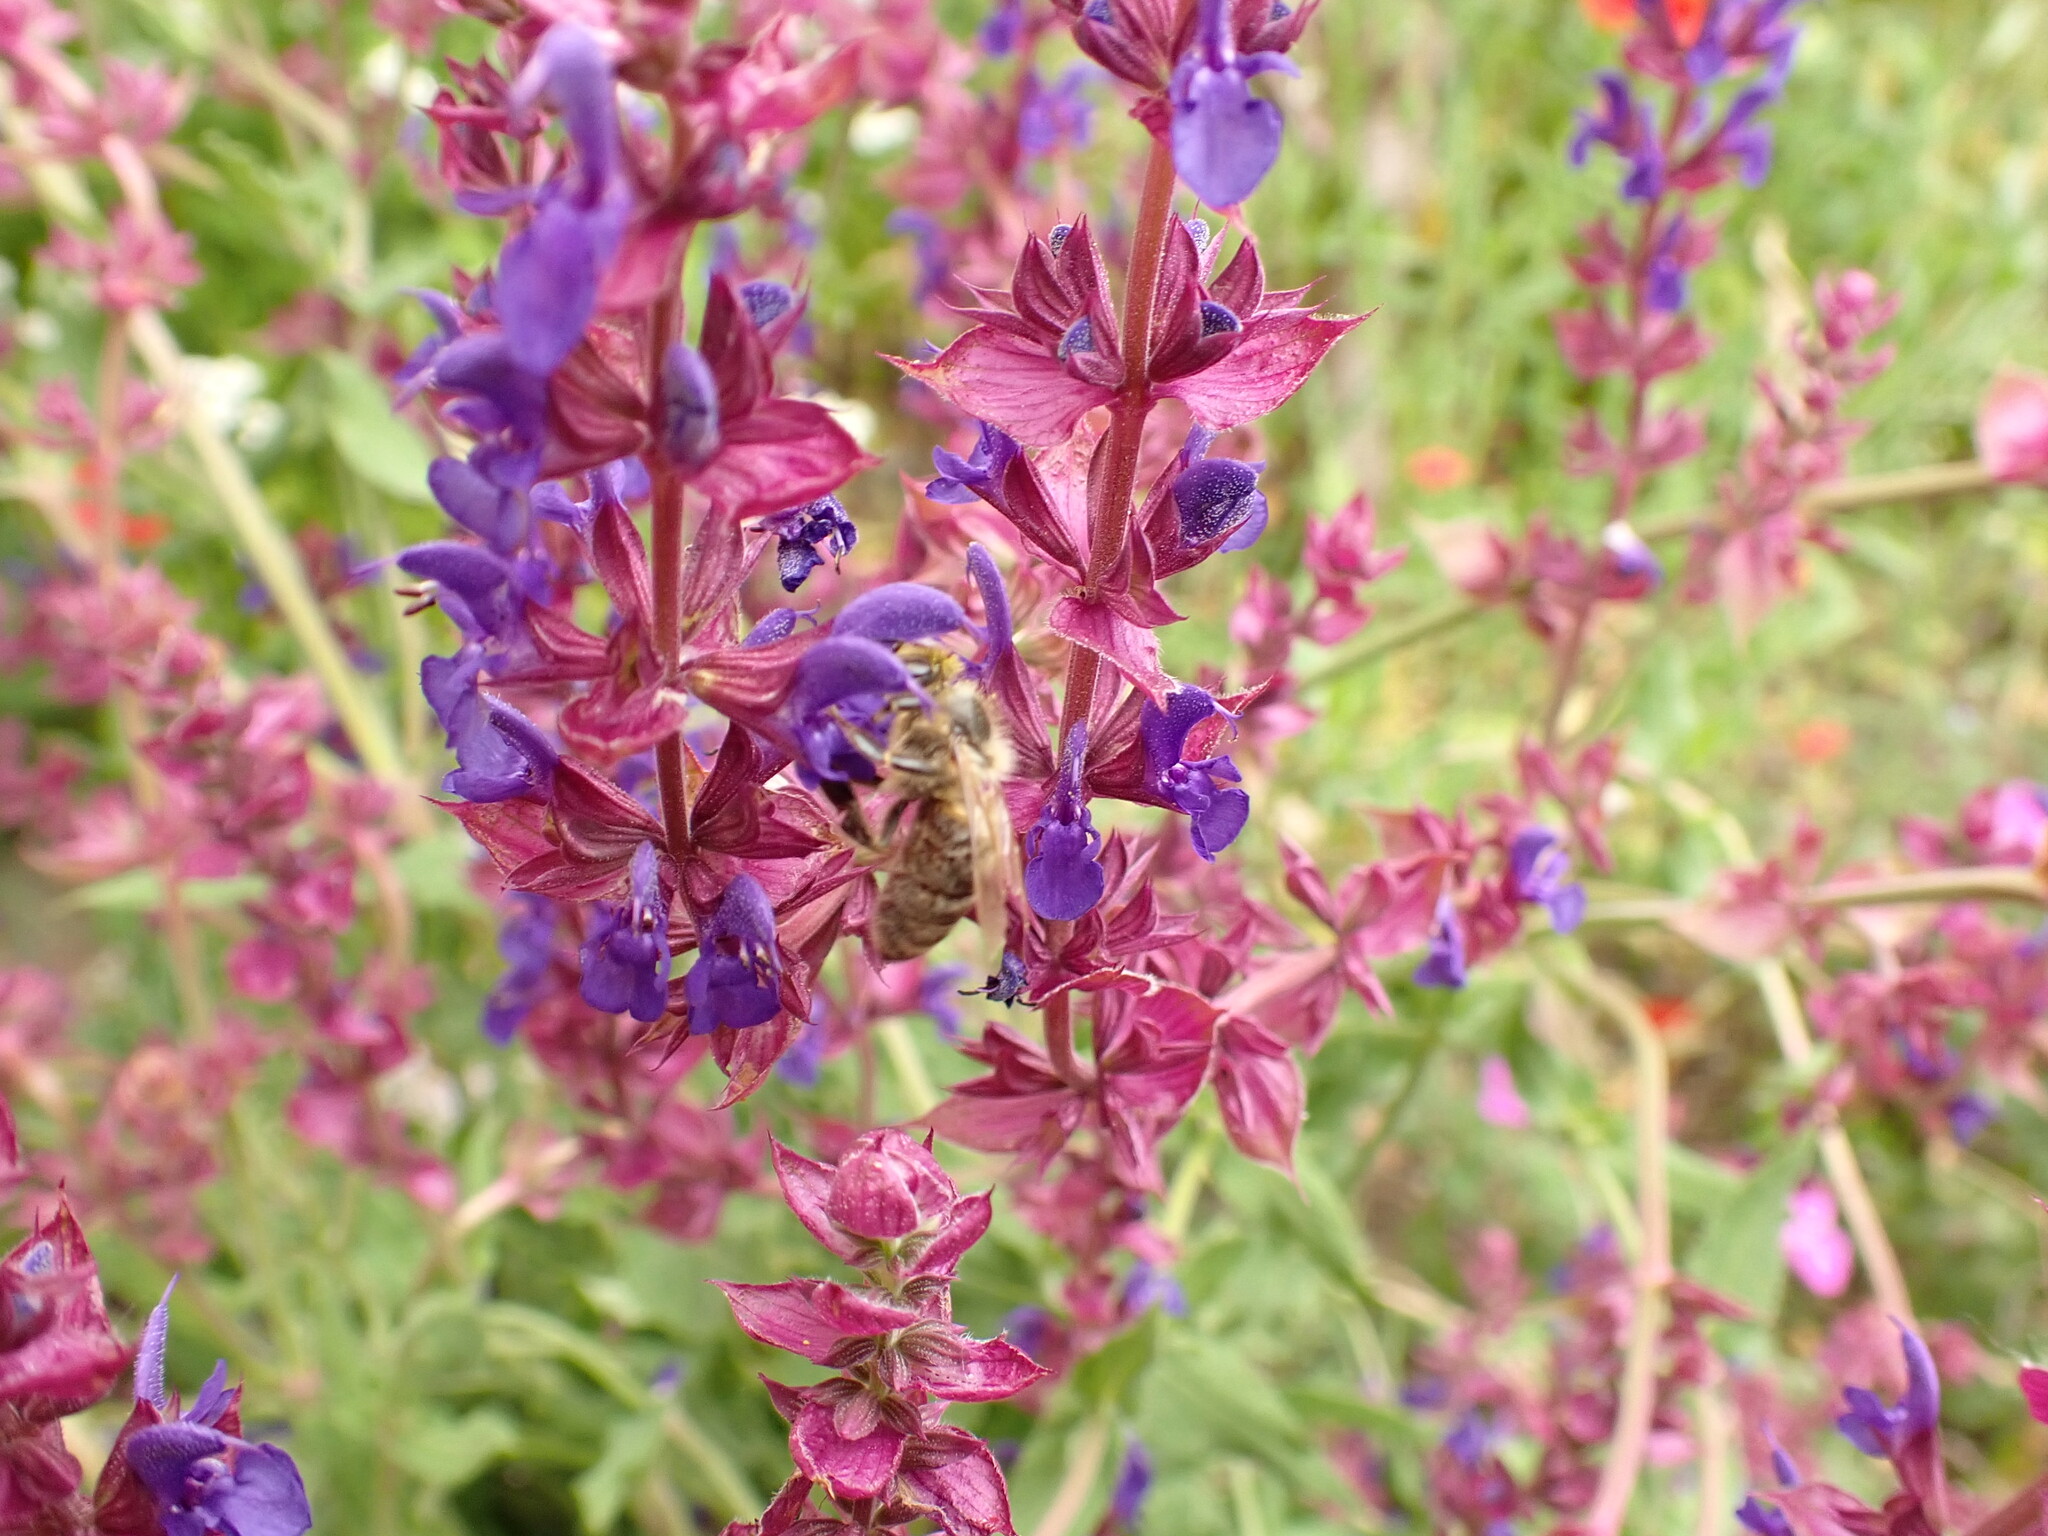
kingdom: Plantae
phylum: Tracheophyta
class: Magnoliopsida
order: Lamiales
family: Lamiaceae
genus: Salvia
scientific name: Salvia nemorosa
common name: Balkan clary
